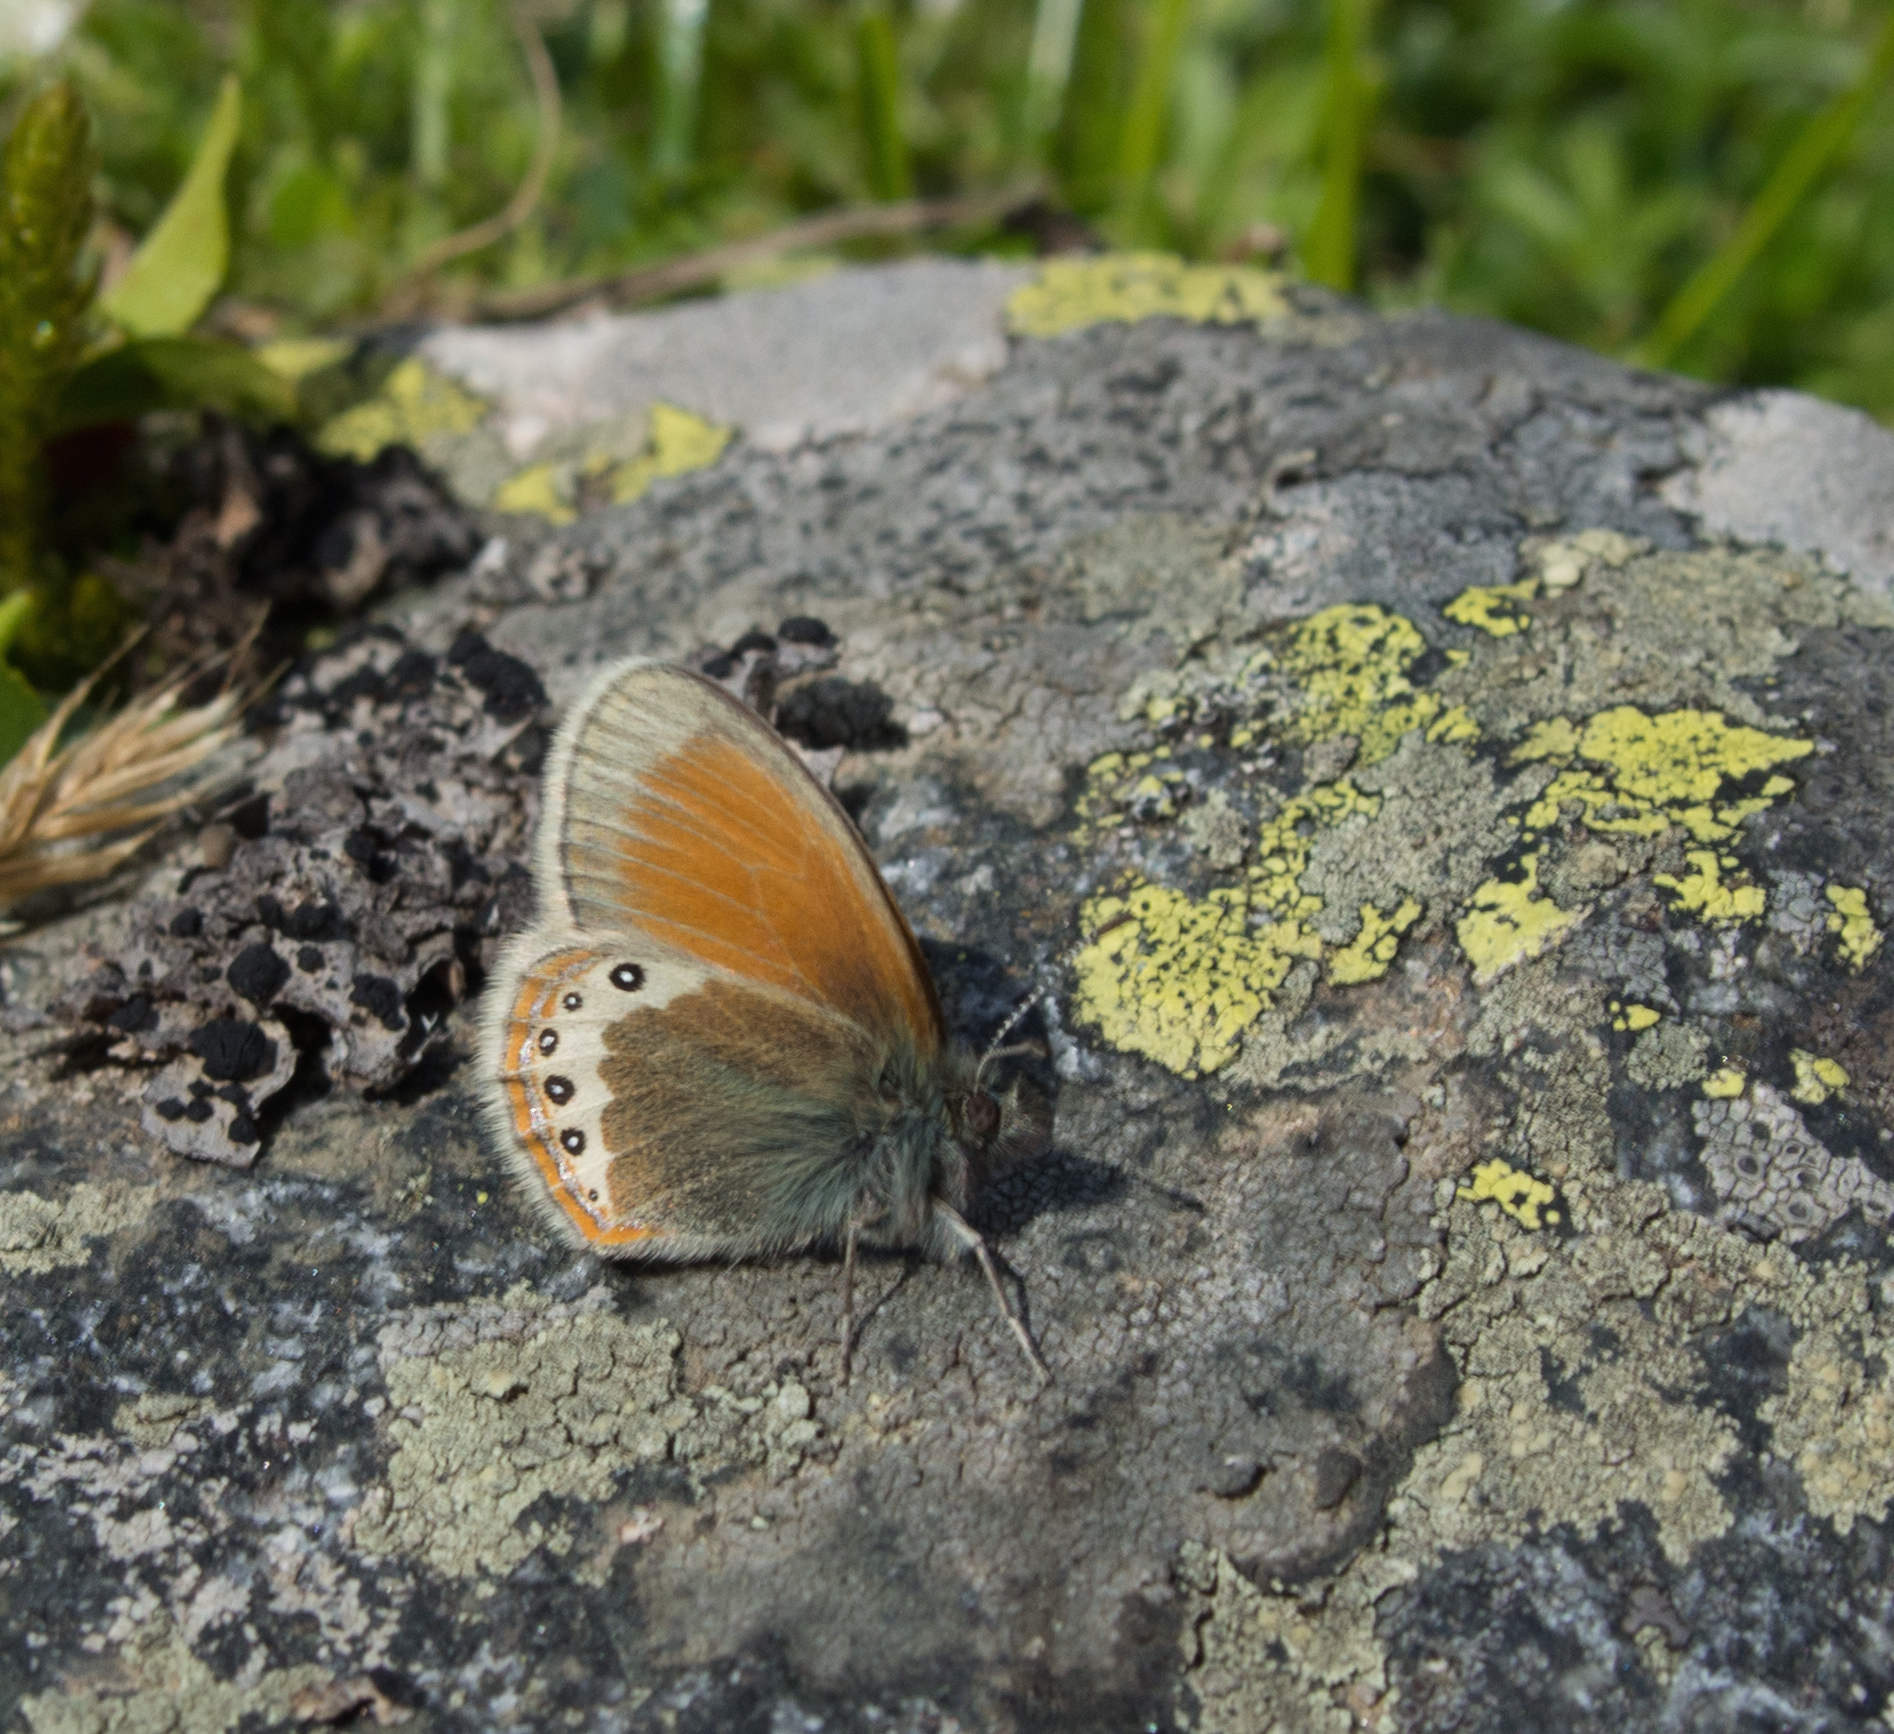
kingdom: Animalia
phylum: Arthropoda
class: Insecta
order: Lepidoptera
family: Nymphalidae
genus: Coenonympha
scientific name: Coenonympha
